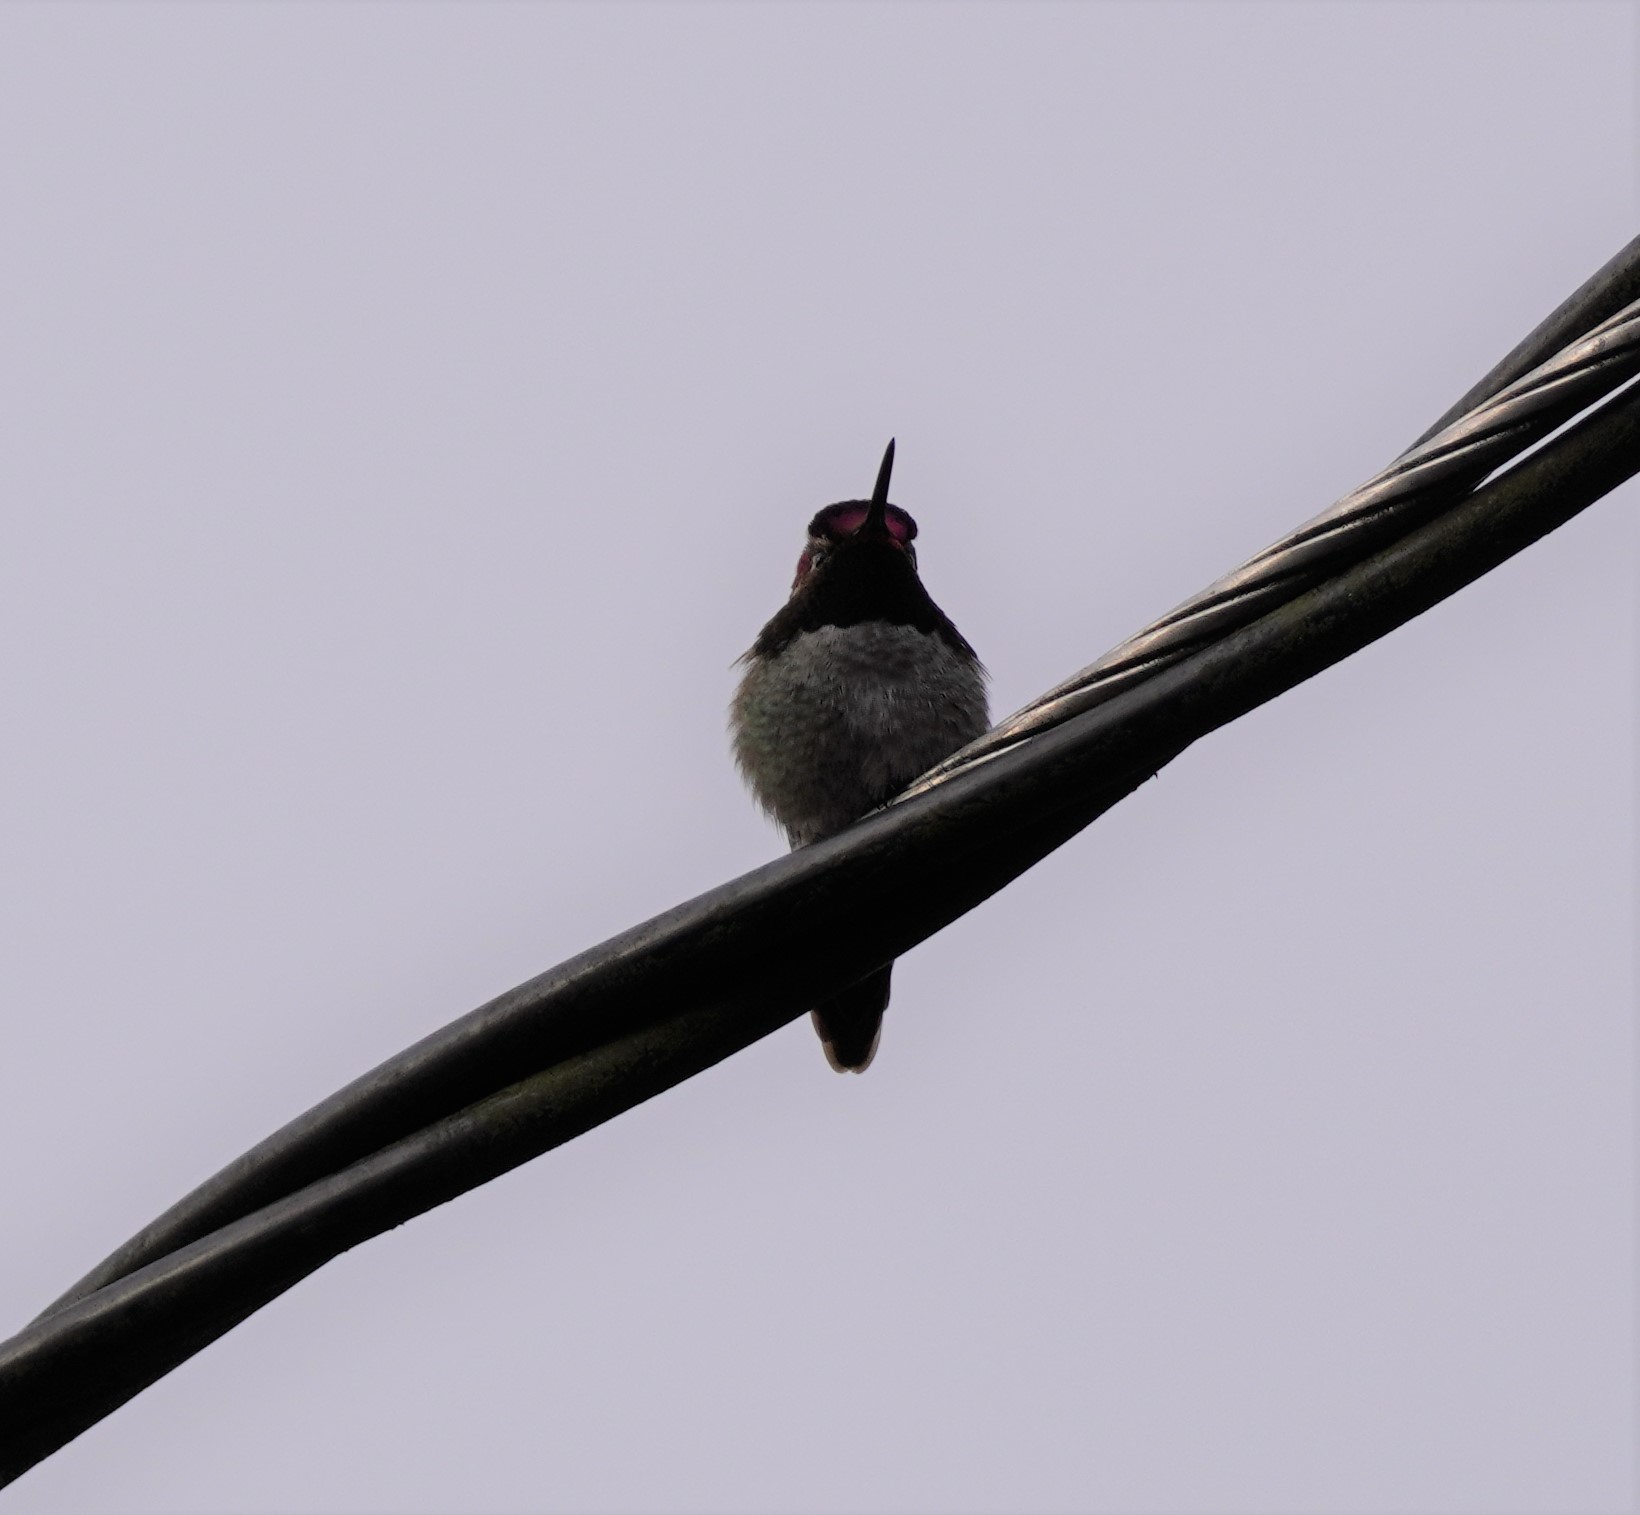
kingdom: Animalia
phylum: Chordata
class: Aves
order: Apodiformes
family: Trochilidae
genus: Calypte
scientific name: Calypte anna
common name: Anna's hummingbird
